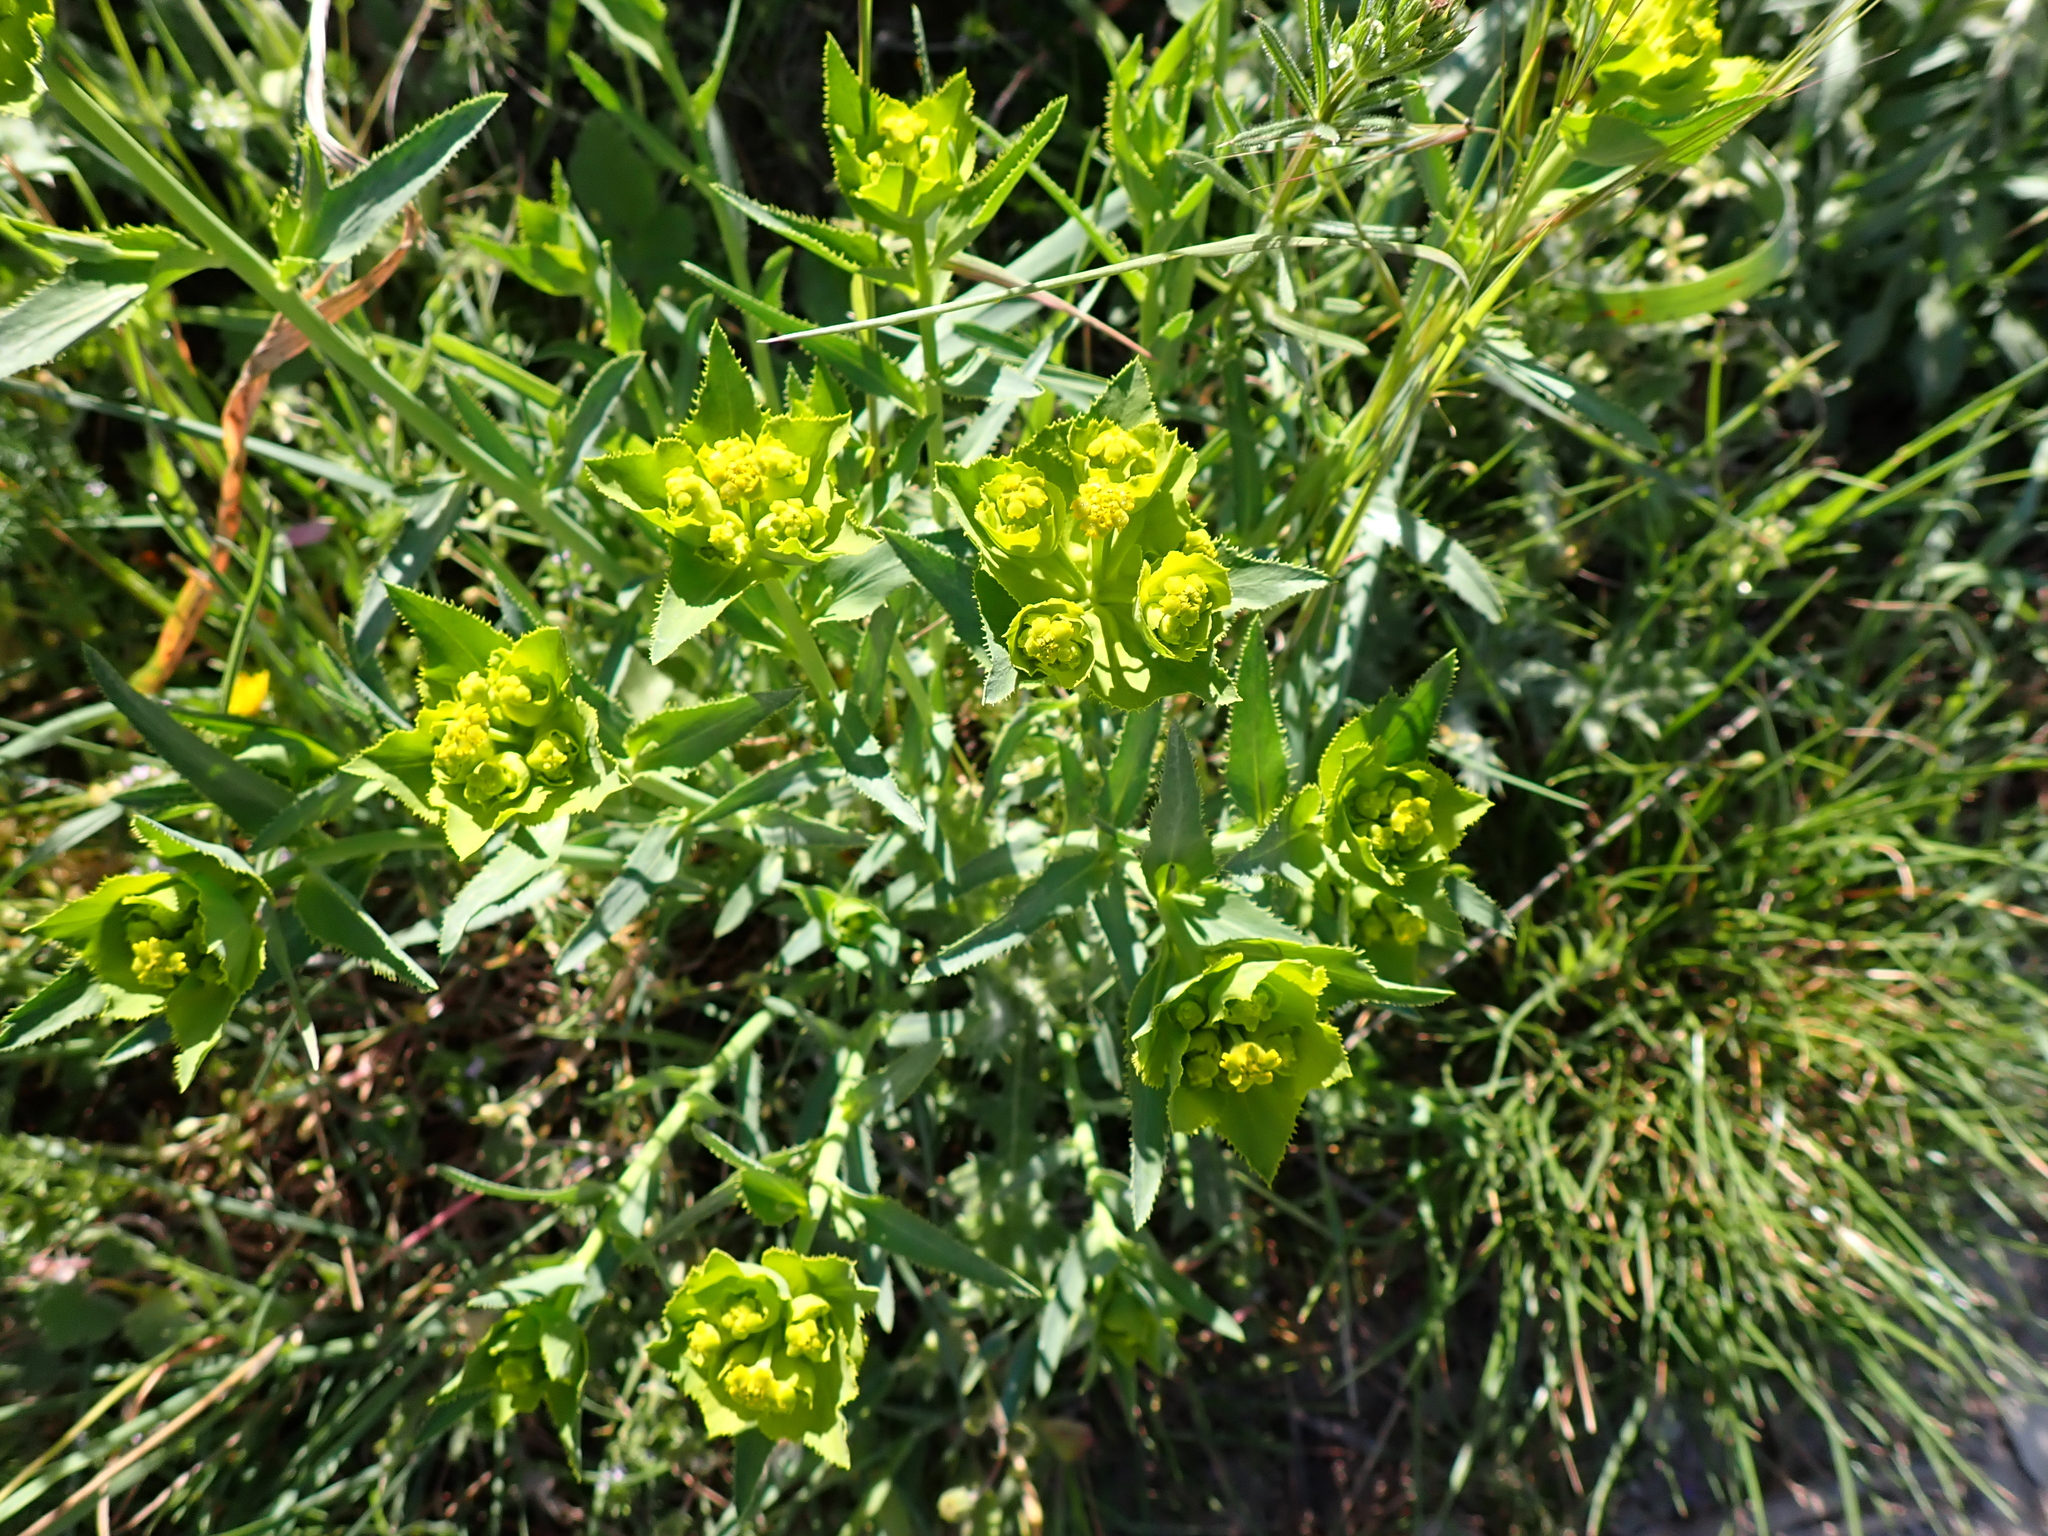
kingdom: Plantae
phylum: Tracheophyta
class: Magnoliopsida
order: Malpighiales
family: Euphorbiaceae
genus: Euphorbia
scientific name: Euphorbia serrata
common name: Serrate spurge
